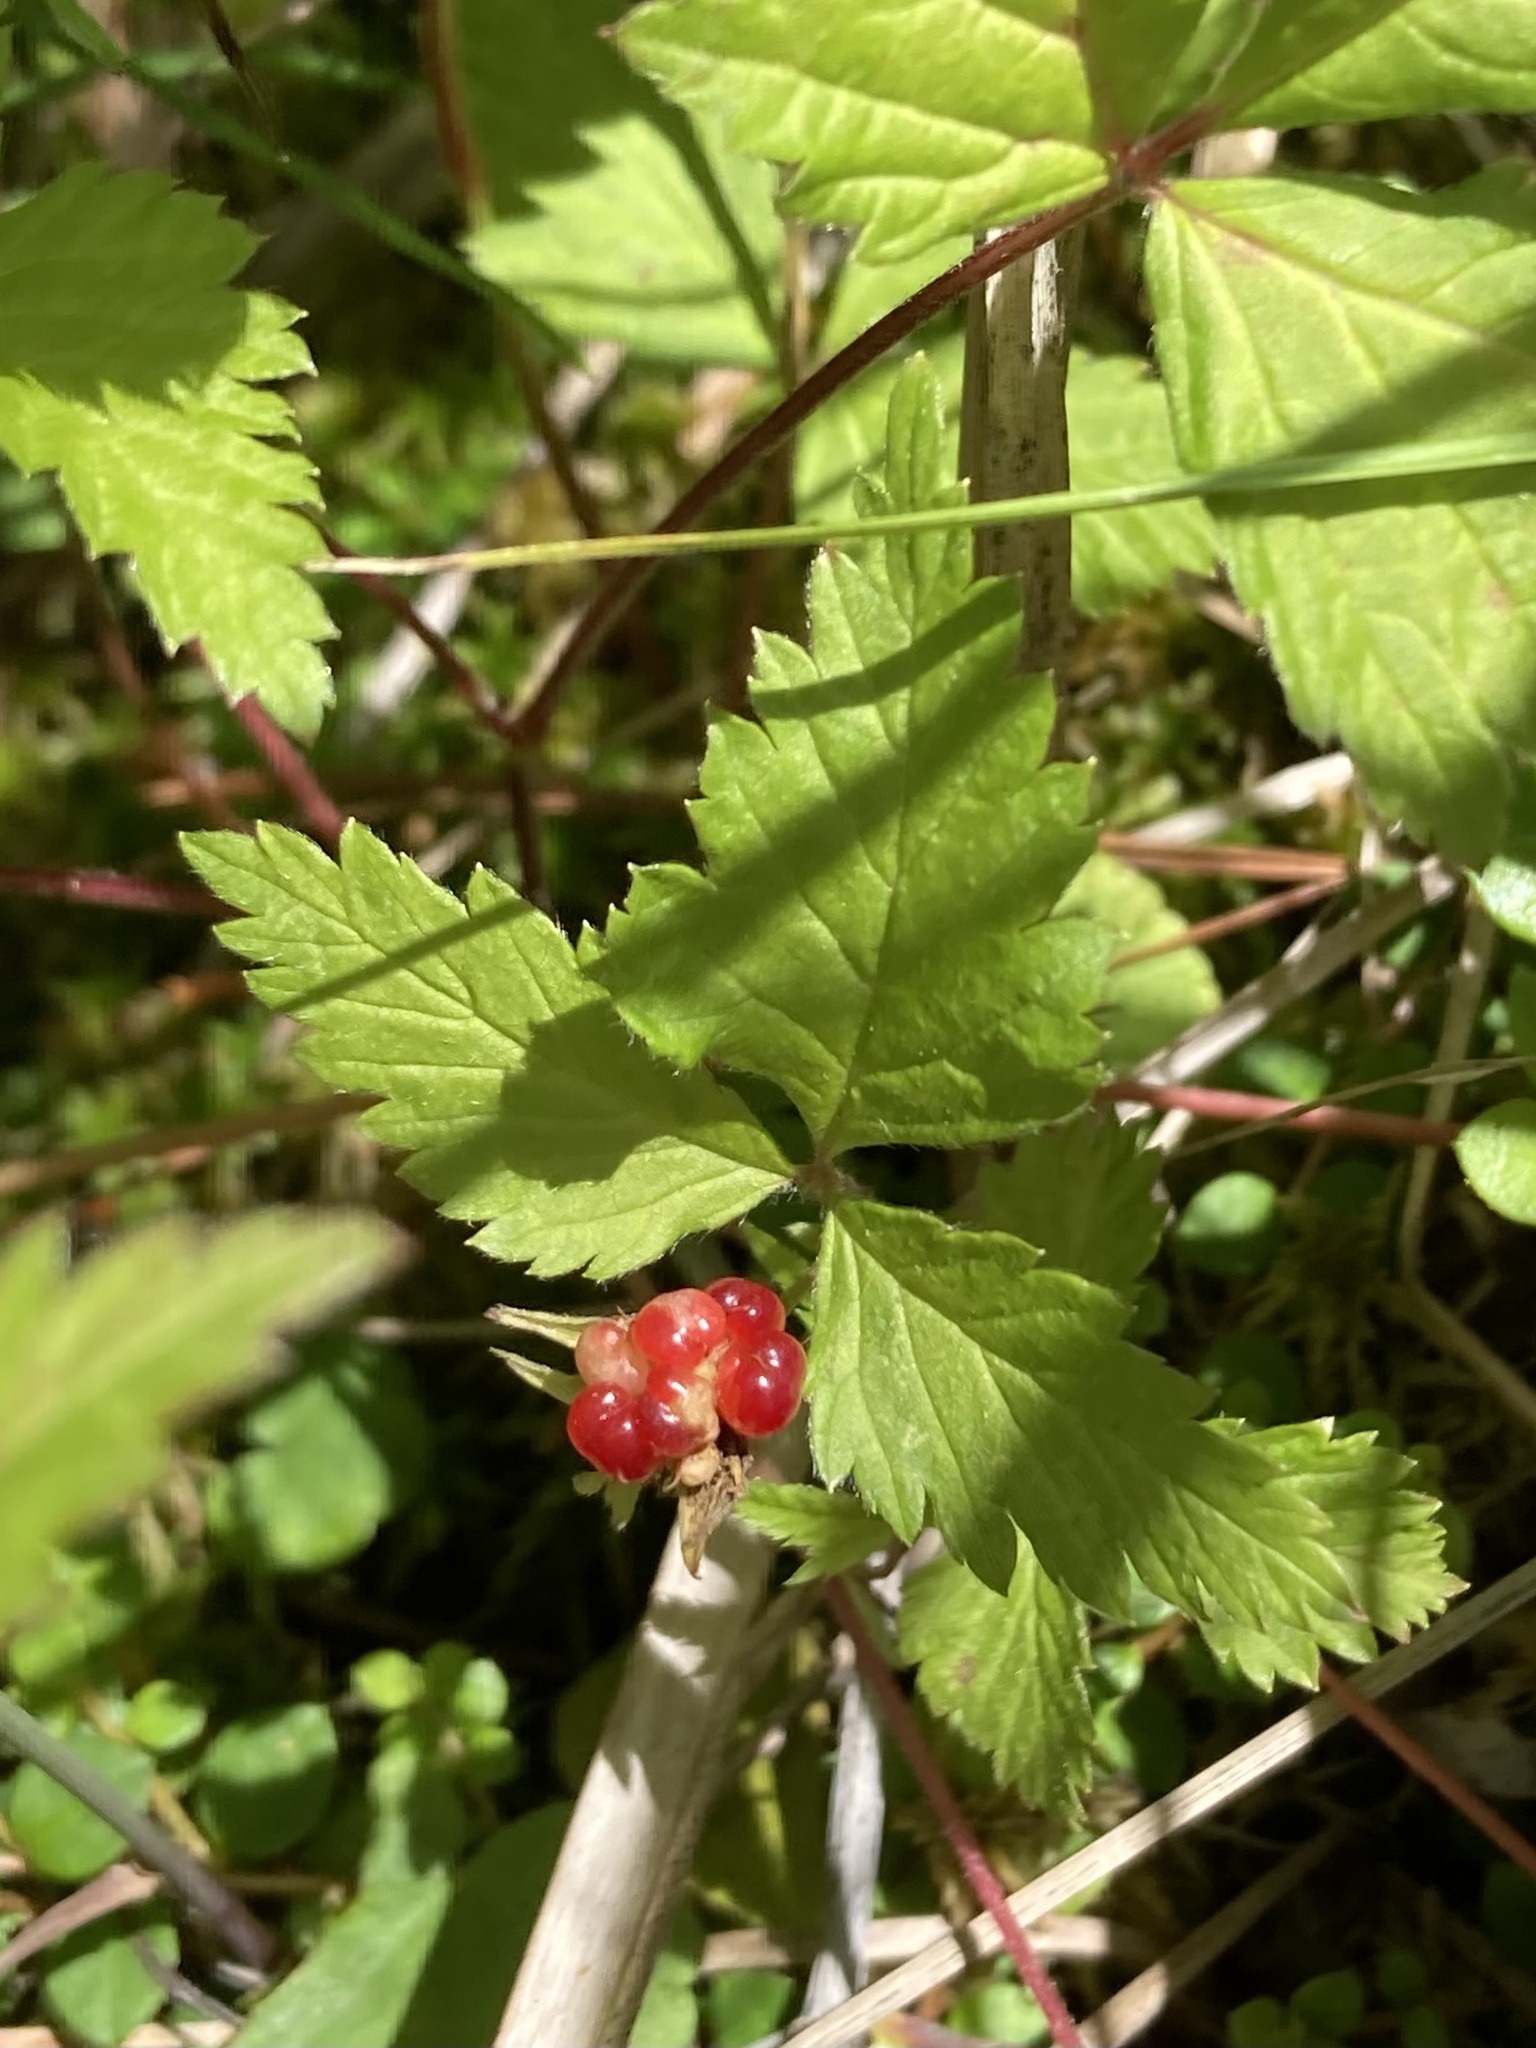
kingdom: Plantae
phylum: Tracheophyta
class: Magnoliopsida
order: Rosales
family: Rosaceae
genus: Rubus
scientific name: Rubus pubescens
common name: Dwarf raspberry
